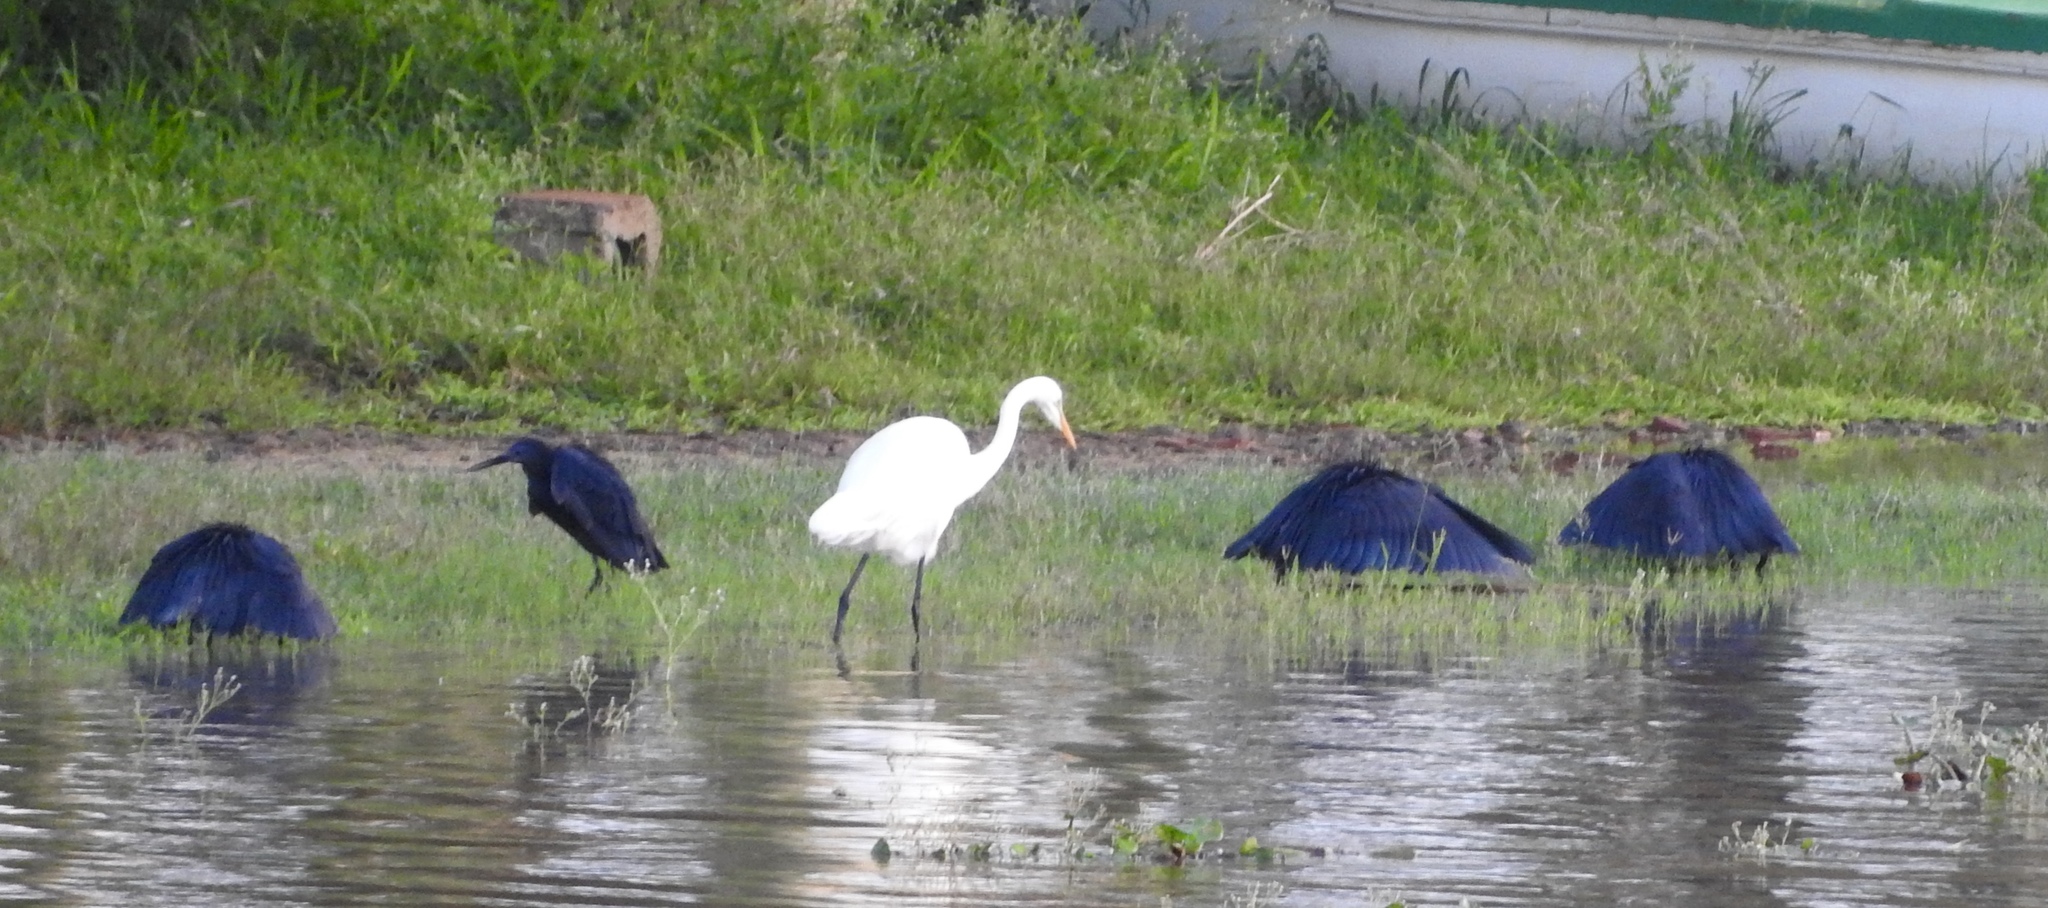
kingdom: Animalia
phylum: Chordata
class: Aves
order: Pelecaniformes
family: Ardeidae
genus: Egretta
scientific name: Egretta ardesiaca
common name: Black heron
